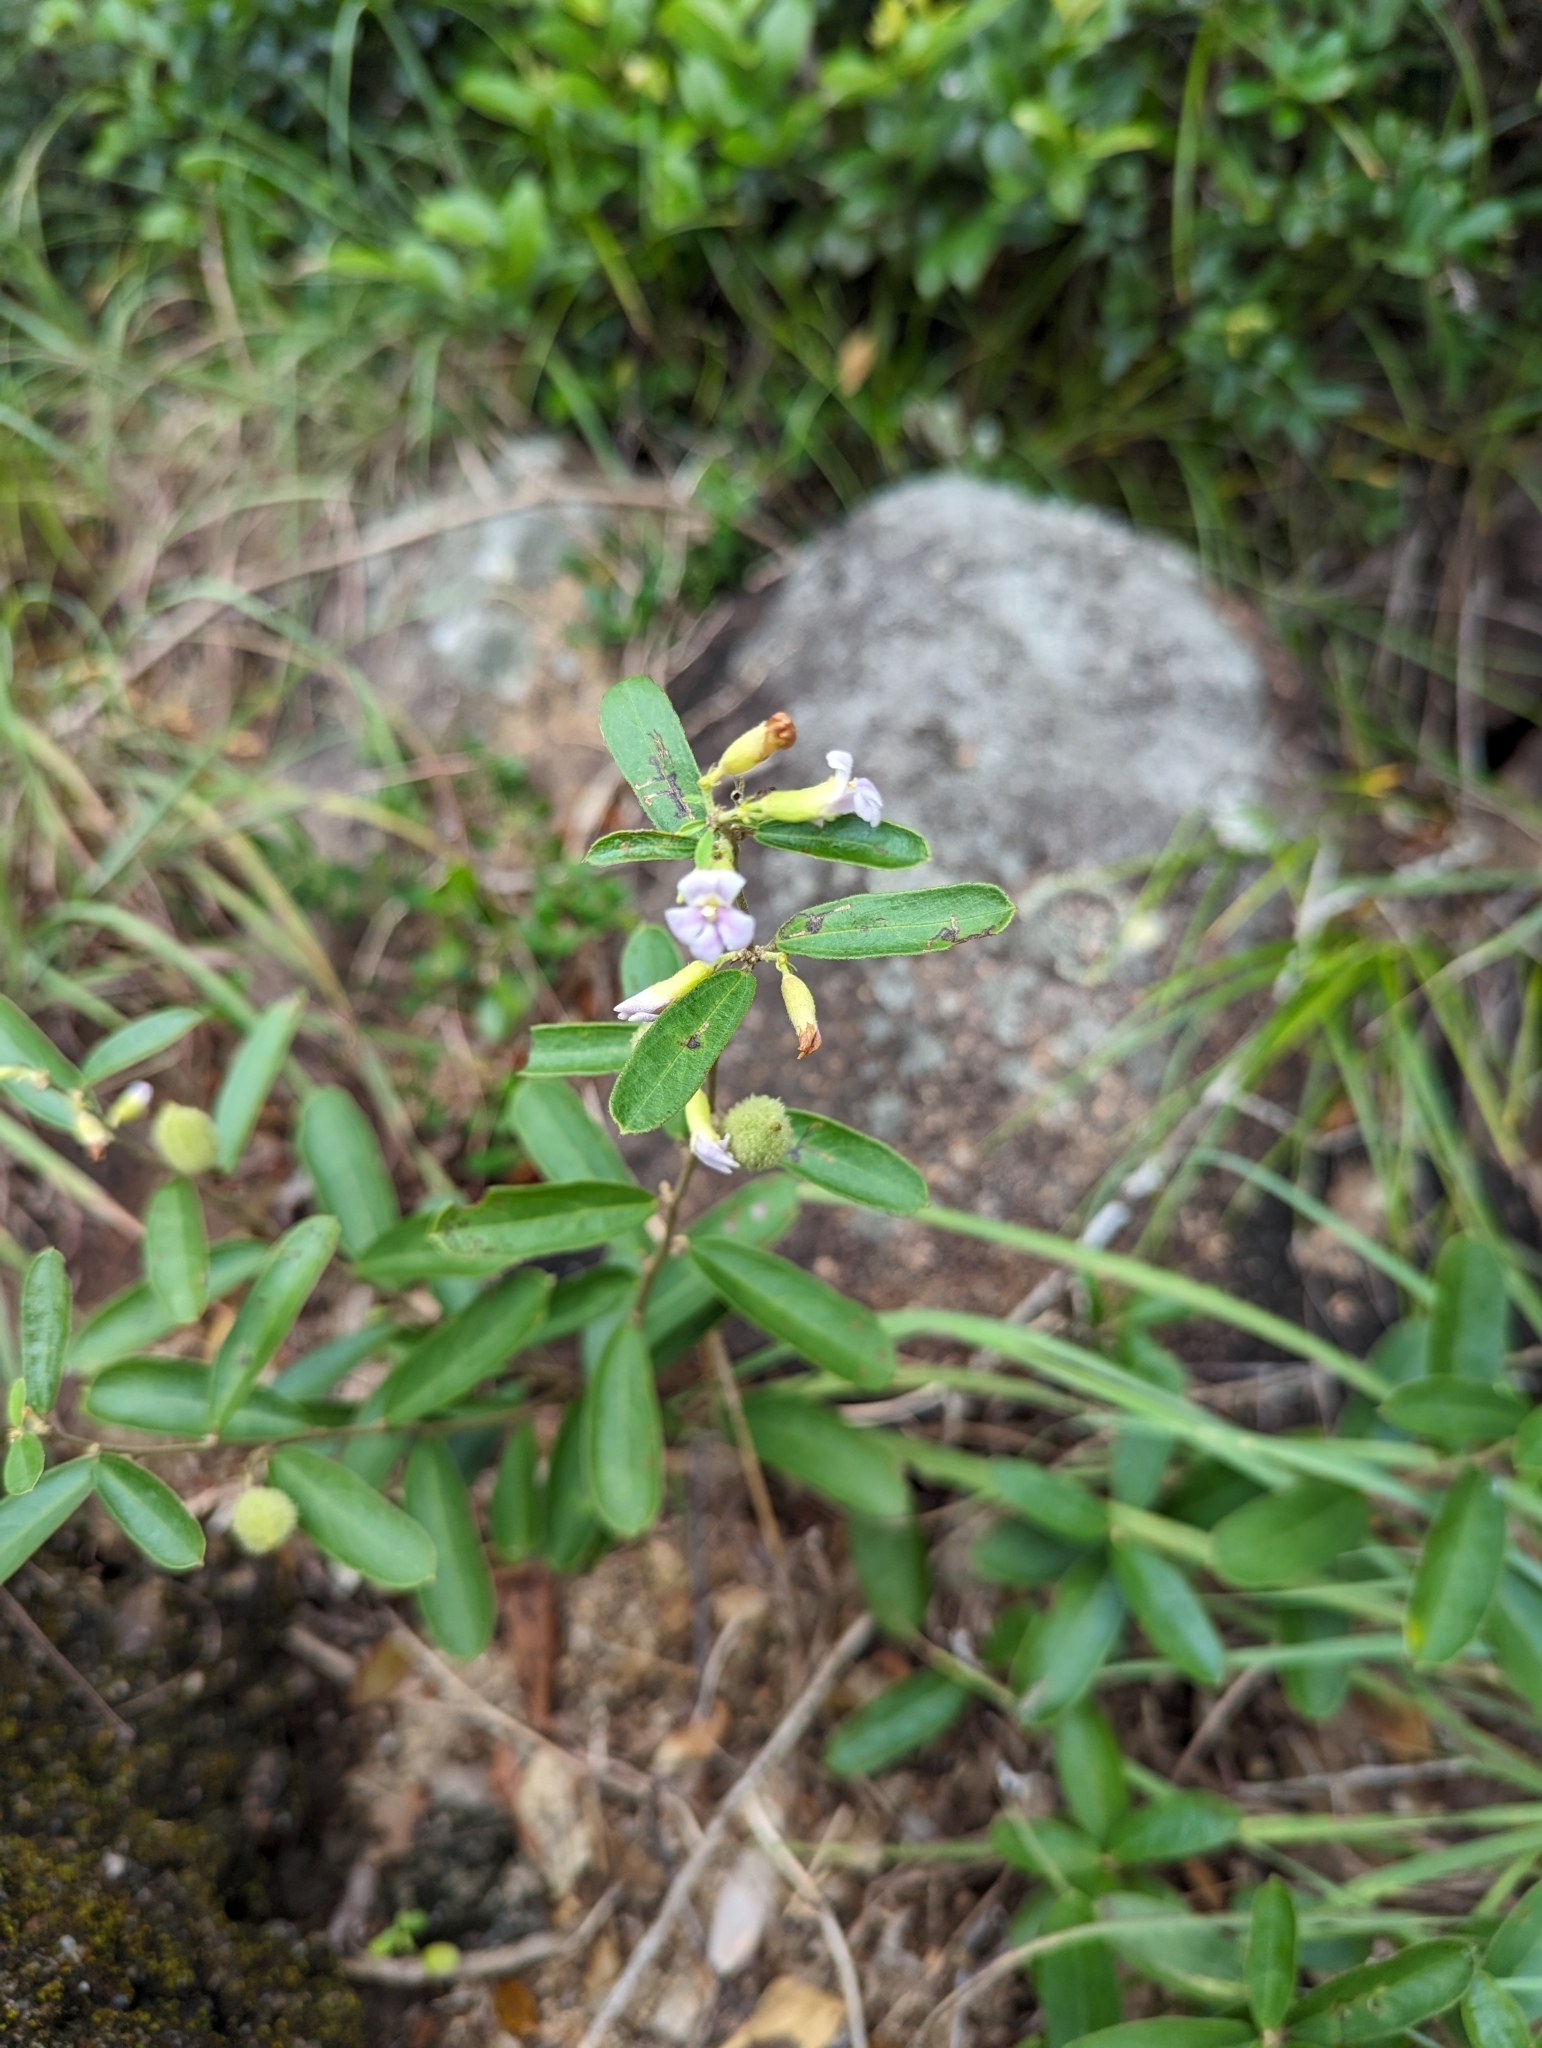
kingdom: Plantae
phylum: Tracheophyta
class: Magnoliopsida
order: Malvales
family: Malvaceae
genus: Helicteres
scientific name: Helicteres angustifolia
